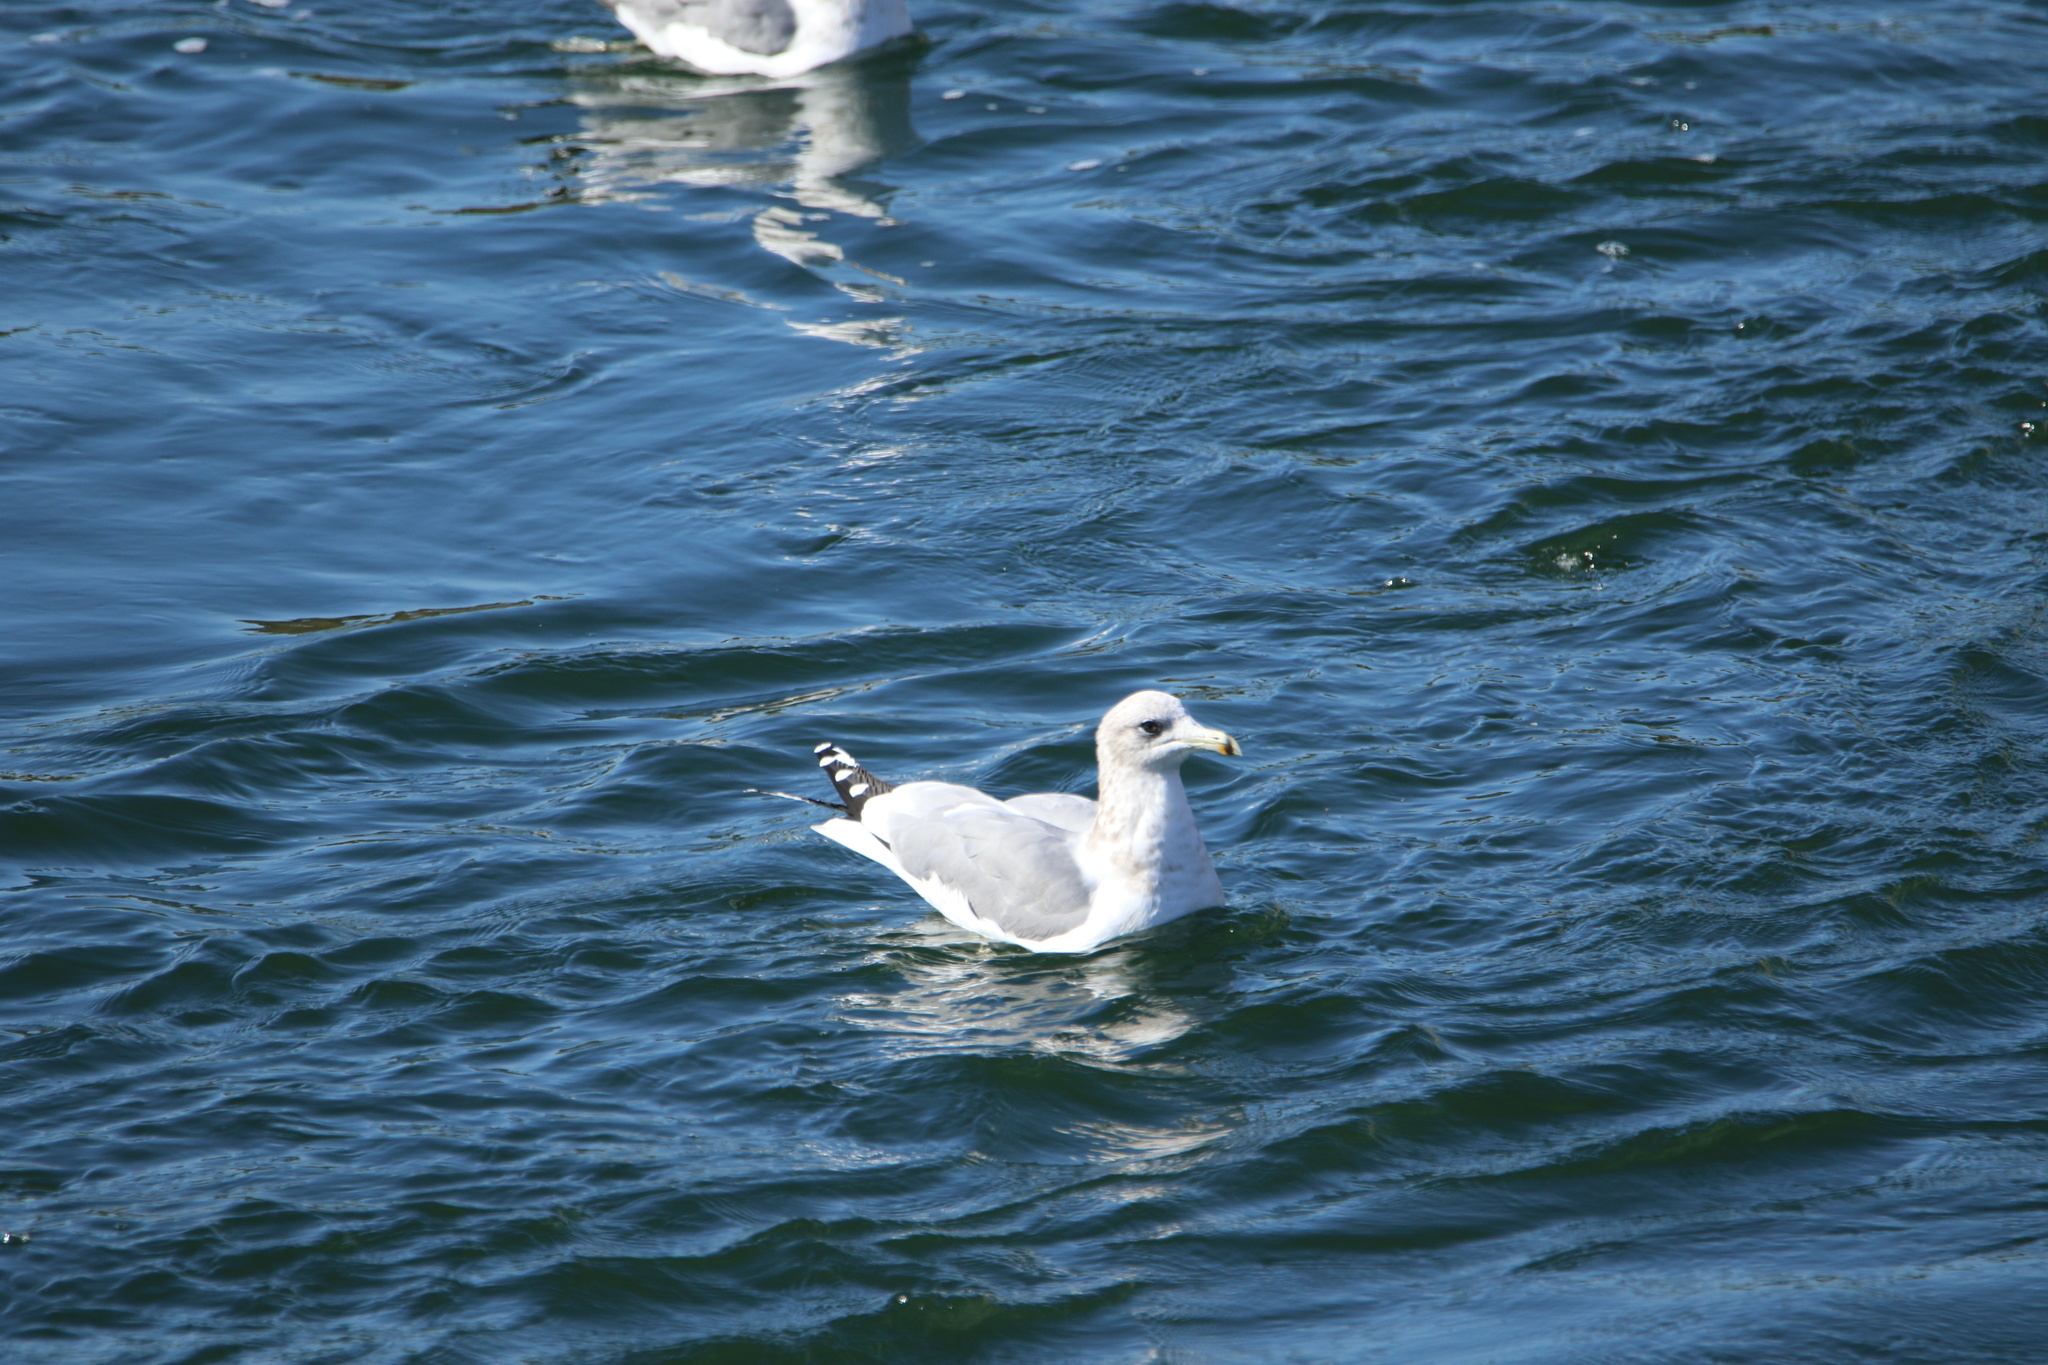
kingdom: Animalia
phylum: Chordata
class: Aves
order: Charadriiformes
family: Laridae
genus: Larus
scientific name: Larus californicus
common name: California gull
